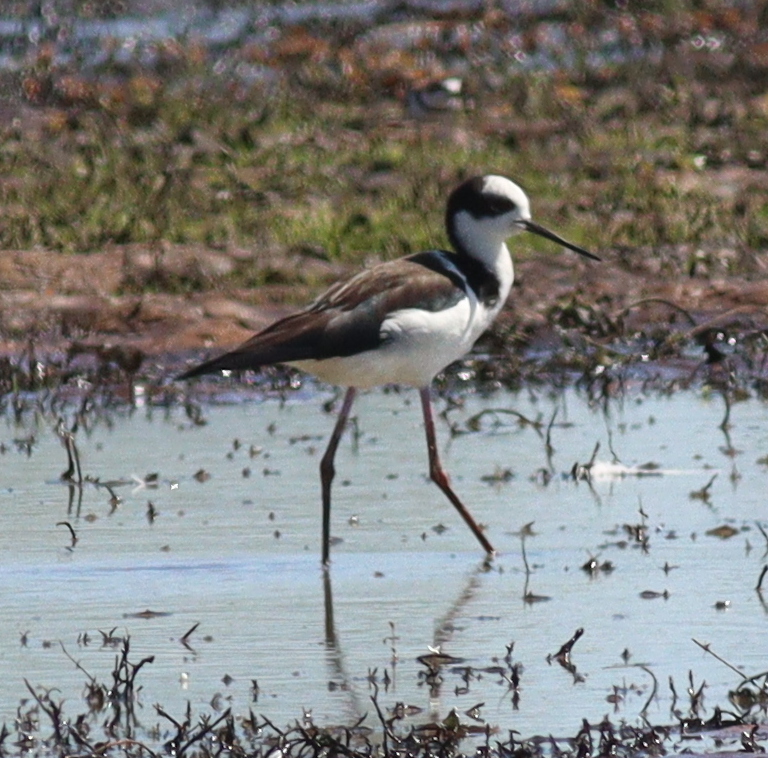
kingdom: Animalia
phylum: Chordata
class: Aves
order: Charadriiformes
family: Recurvirostridae
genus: Himantopus
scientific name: Himantopus mexicanus
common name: Black-necked stilt
